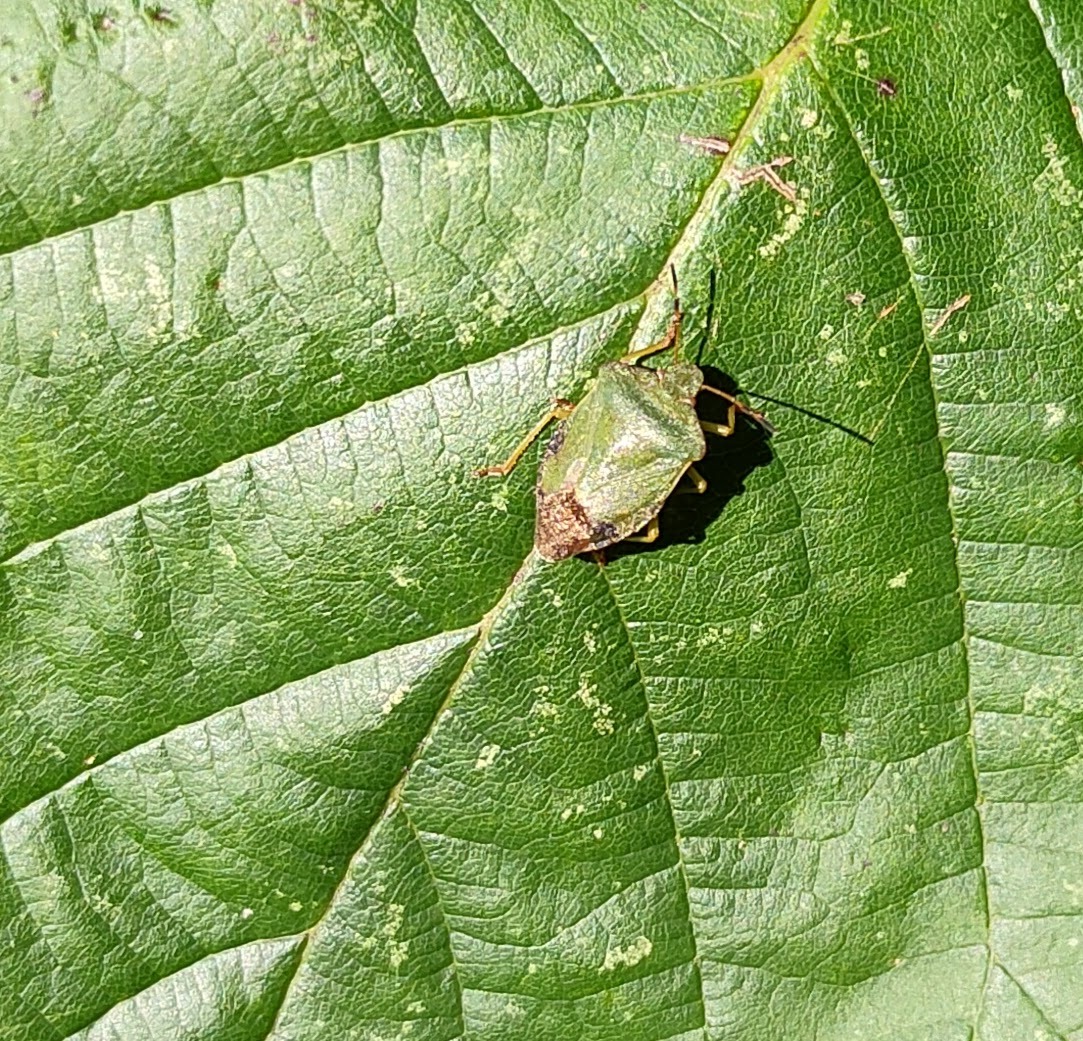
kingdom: Animalia
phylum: Arthropoda
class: Insecta
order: Hemiptera
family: Pentatomidae
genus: Palomena
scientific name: Palomena prasina
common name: Green shieldbug
